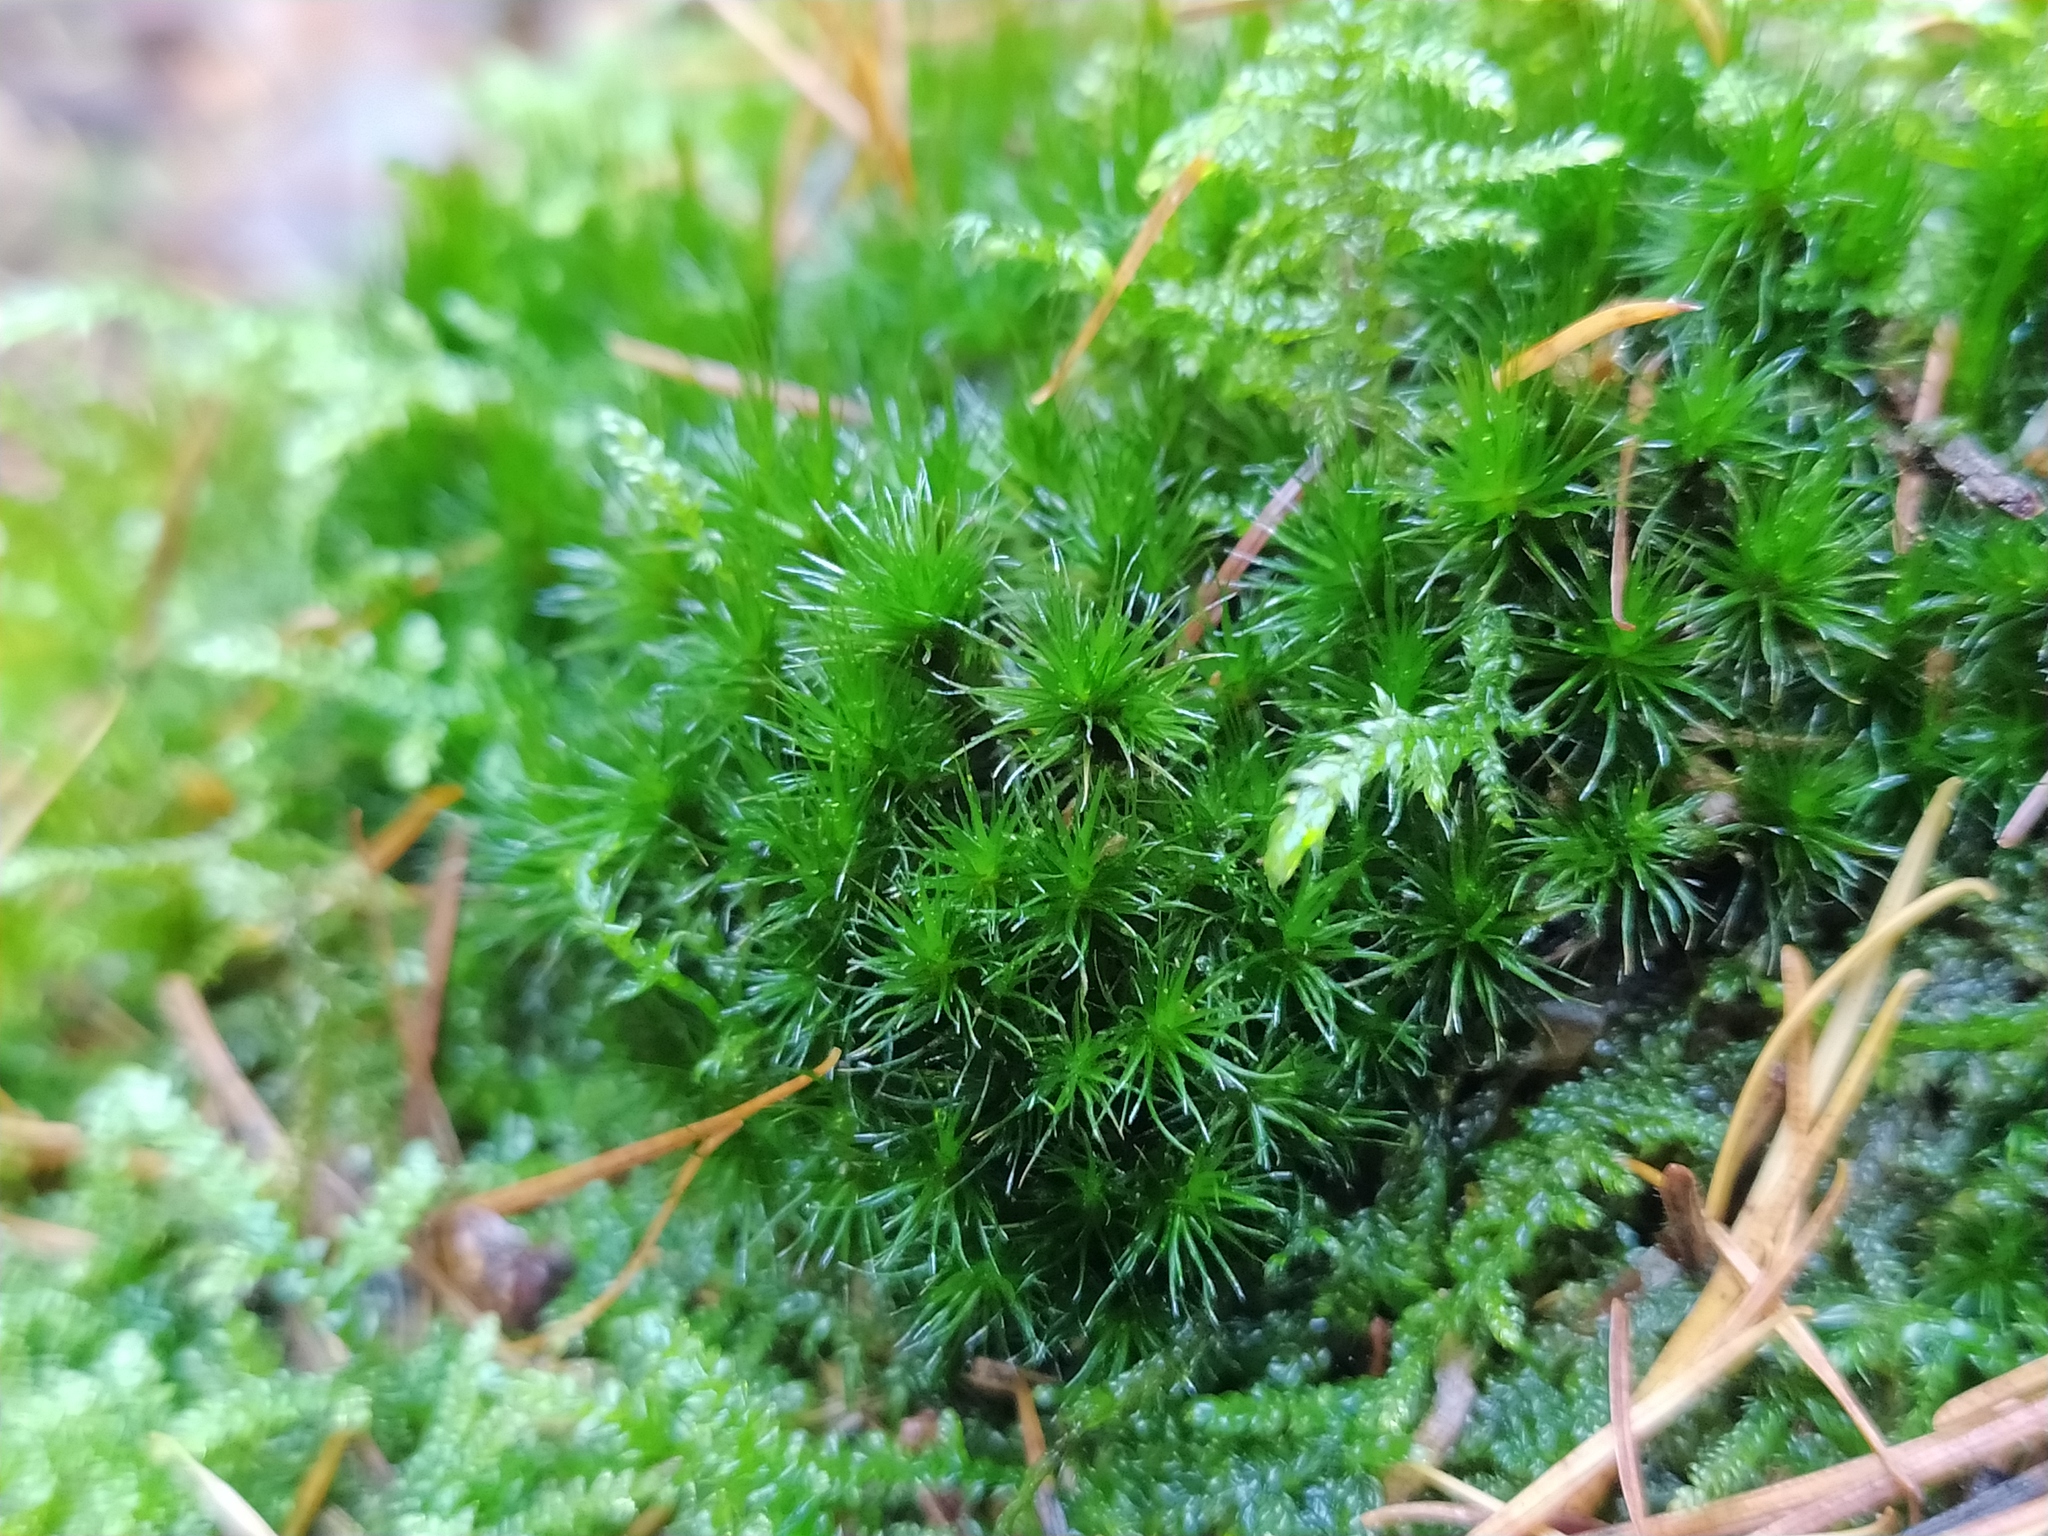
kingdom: Plantae
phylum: Bryophyta
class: Bryopsida
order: Dicranales
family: Leucobryaceae
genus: Campylopus
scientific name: Campylopus introflexus
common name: Heath star moss
